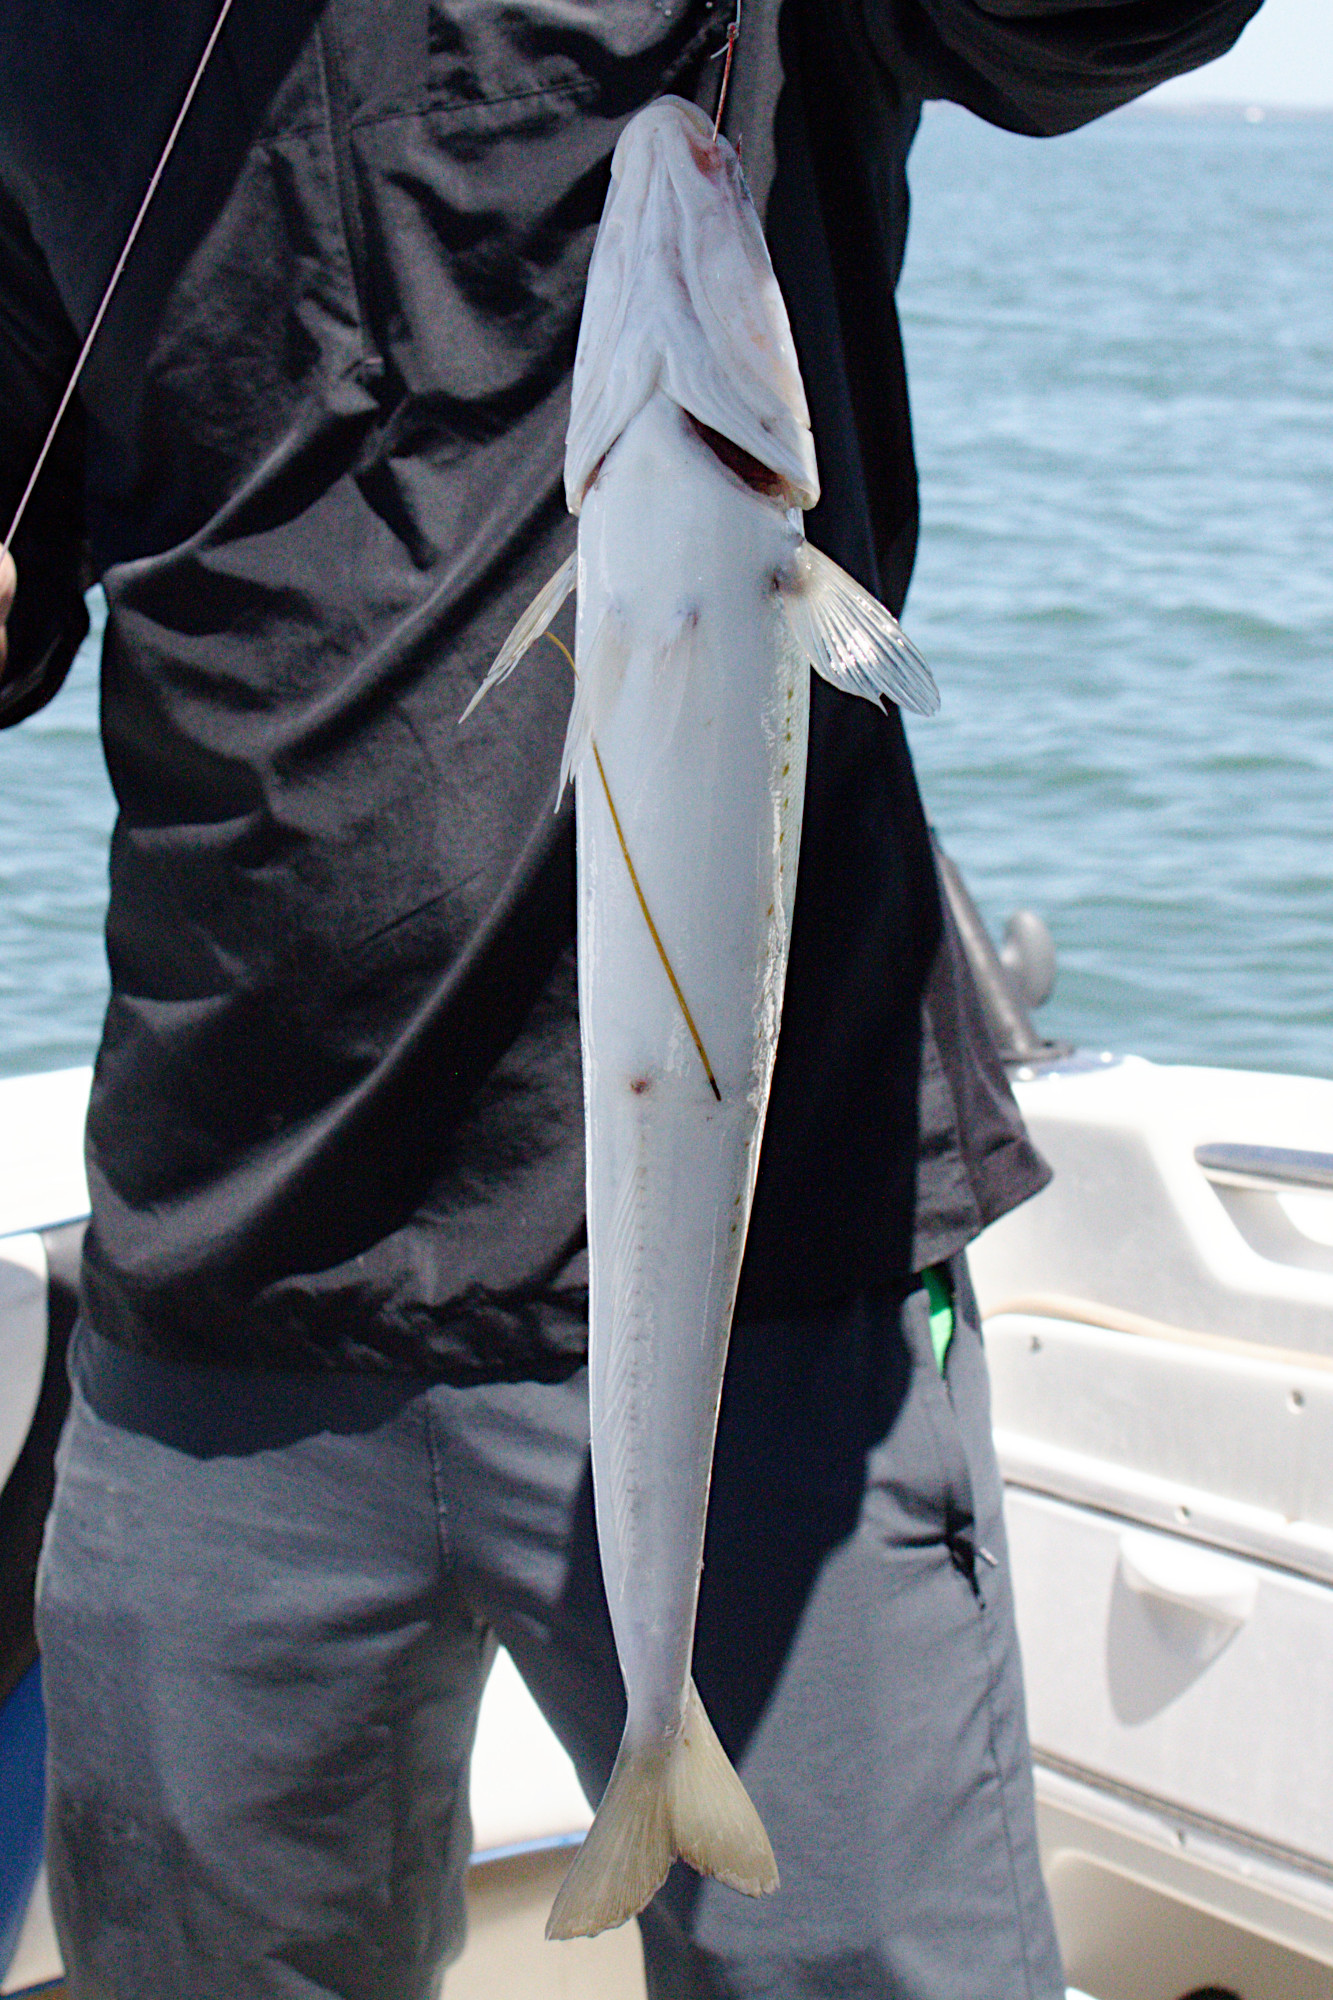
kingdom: Animalia
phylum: Chordata
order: Perciformes
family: Sillaginidae
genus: Sillaginodes
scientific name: Sillaginodes punctatus
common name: King george whiting
